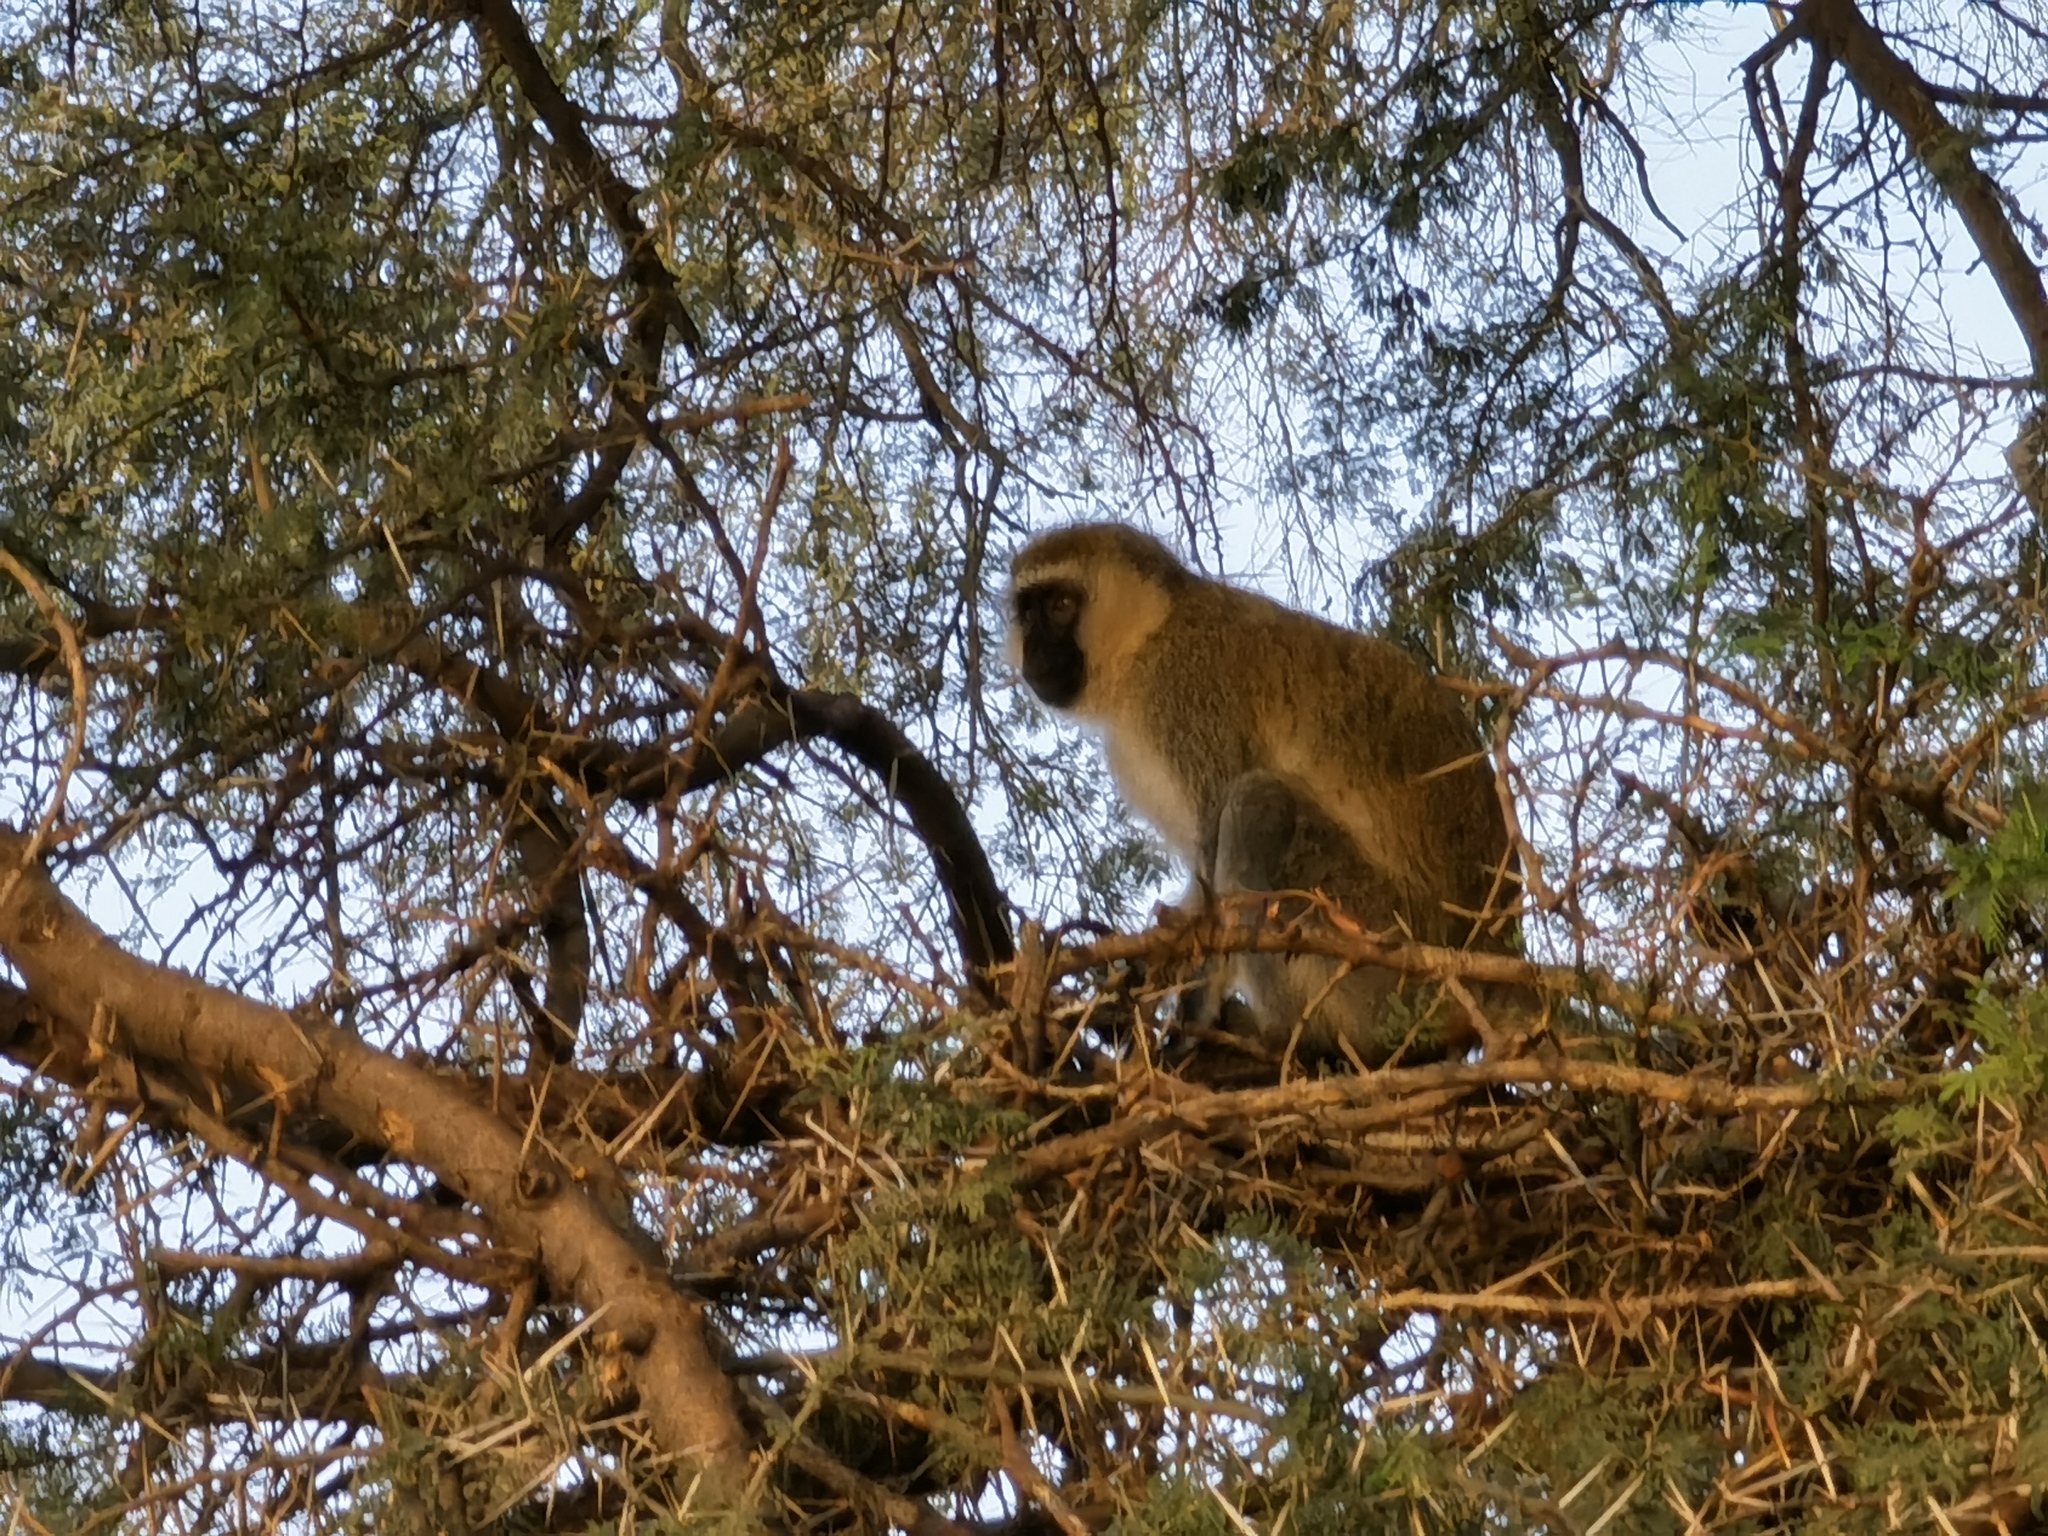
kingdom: Animalia
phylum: Chordata
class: Mammalia
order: Primates
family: Cercopithecidae
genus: Chlorocebus
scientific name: Chlorocebus pygerythrus
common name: Vervet monkey
